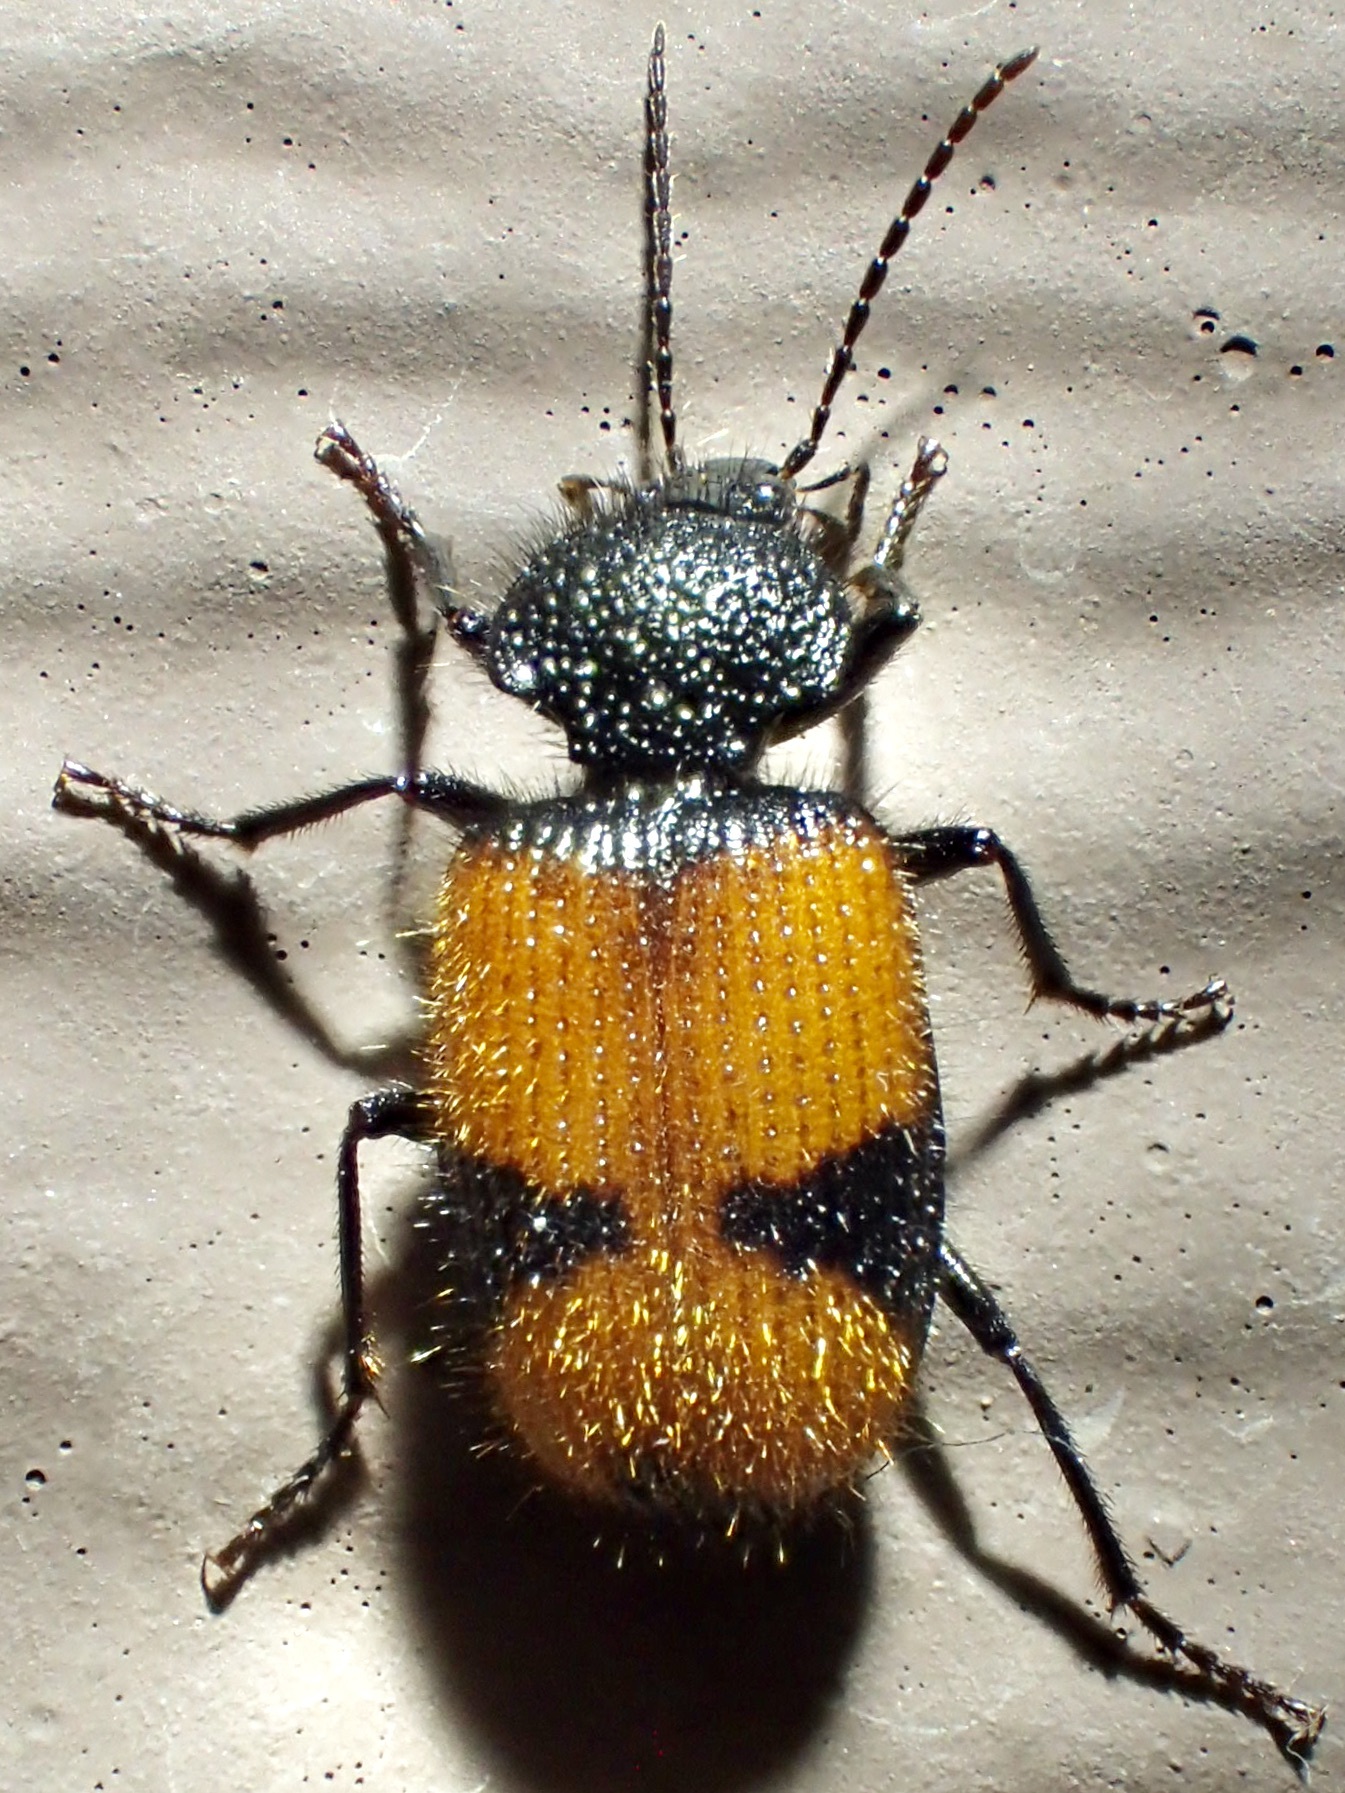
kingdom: Animalia
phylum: Arthropoda
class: Insecta
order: Coleoptera
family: Carabidae
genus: Panagaeus
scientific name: Panagaeus sallei
